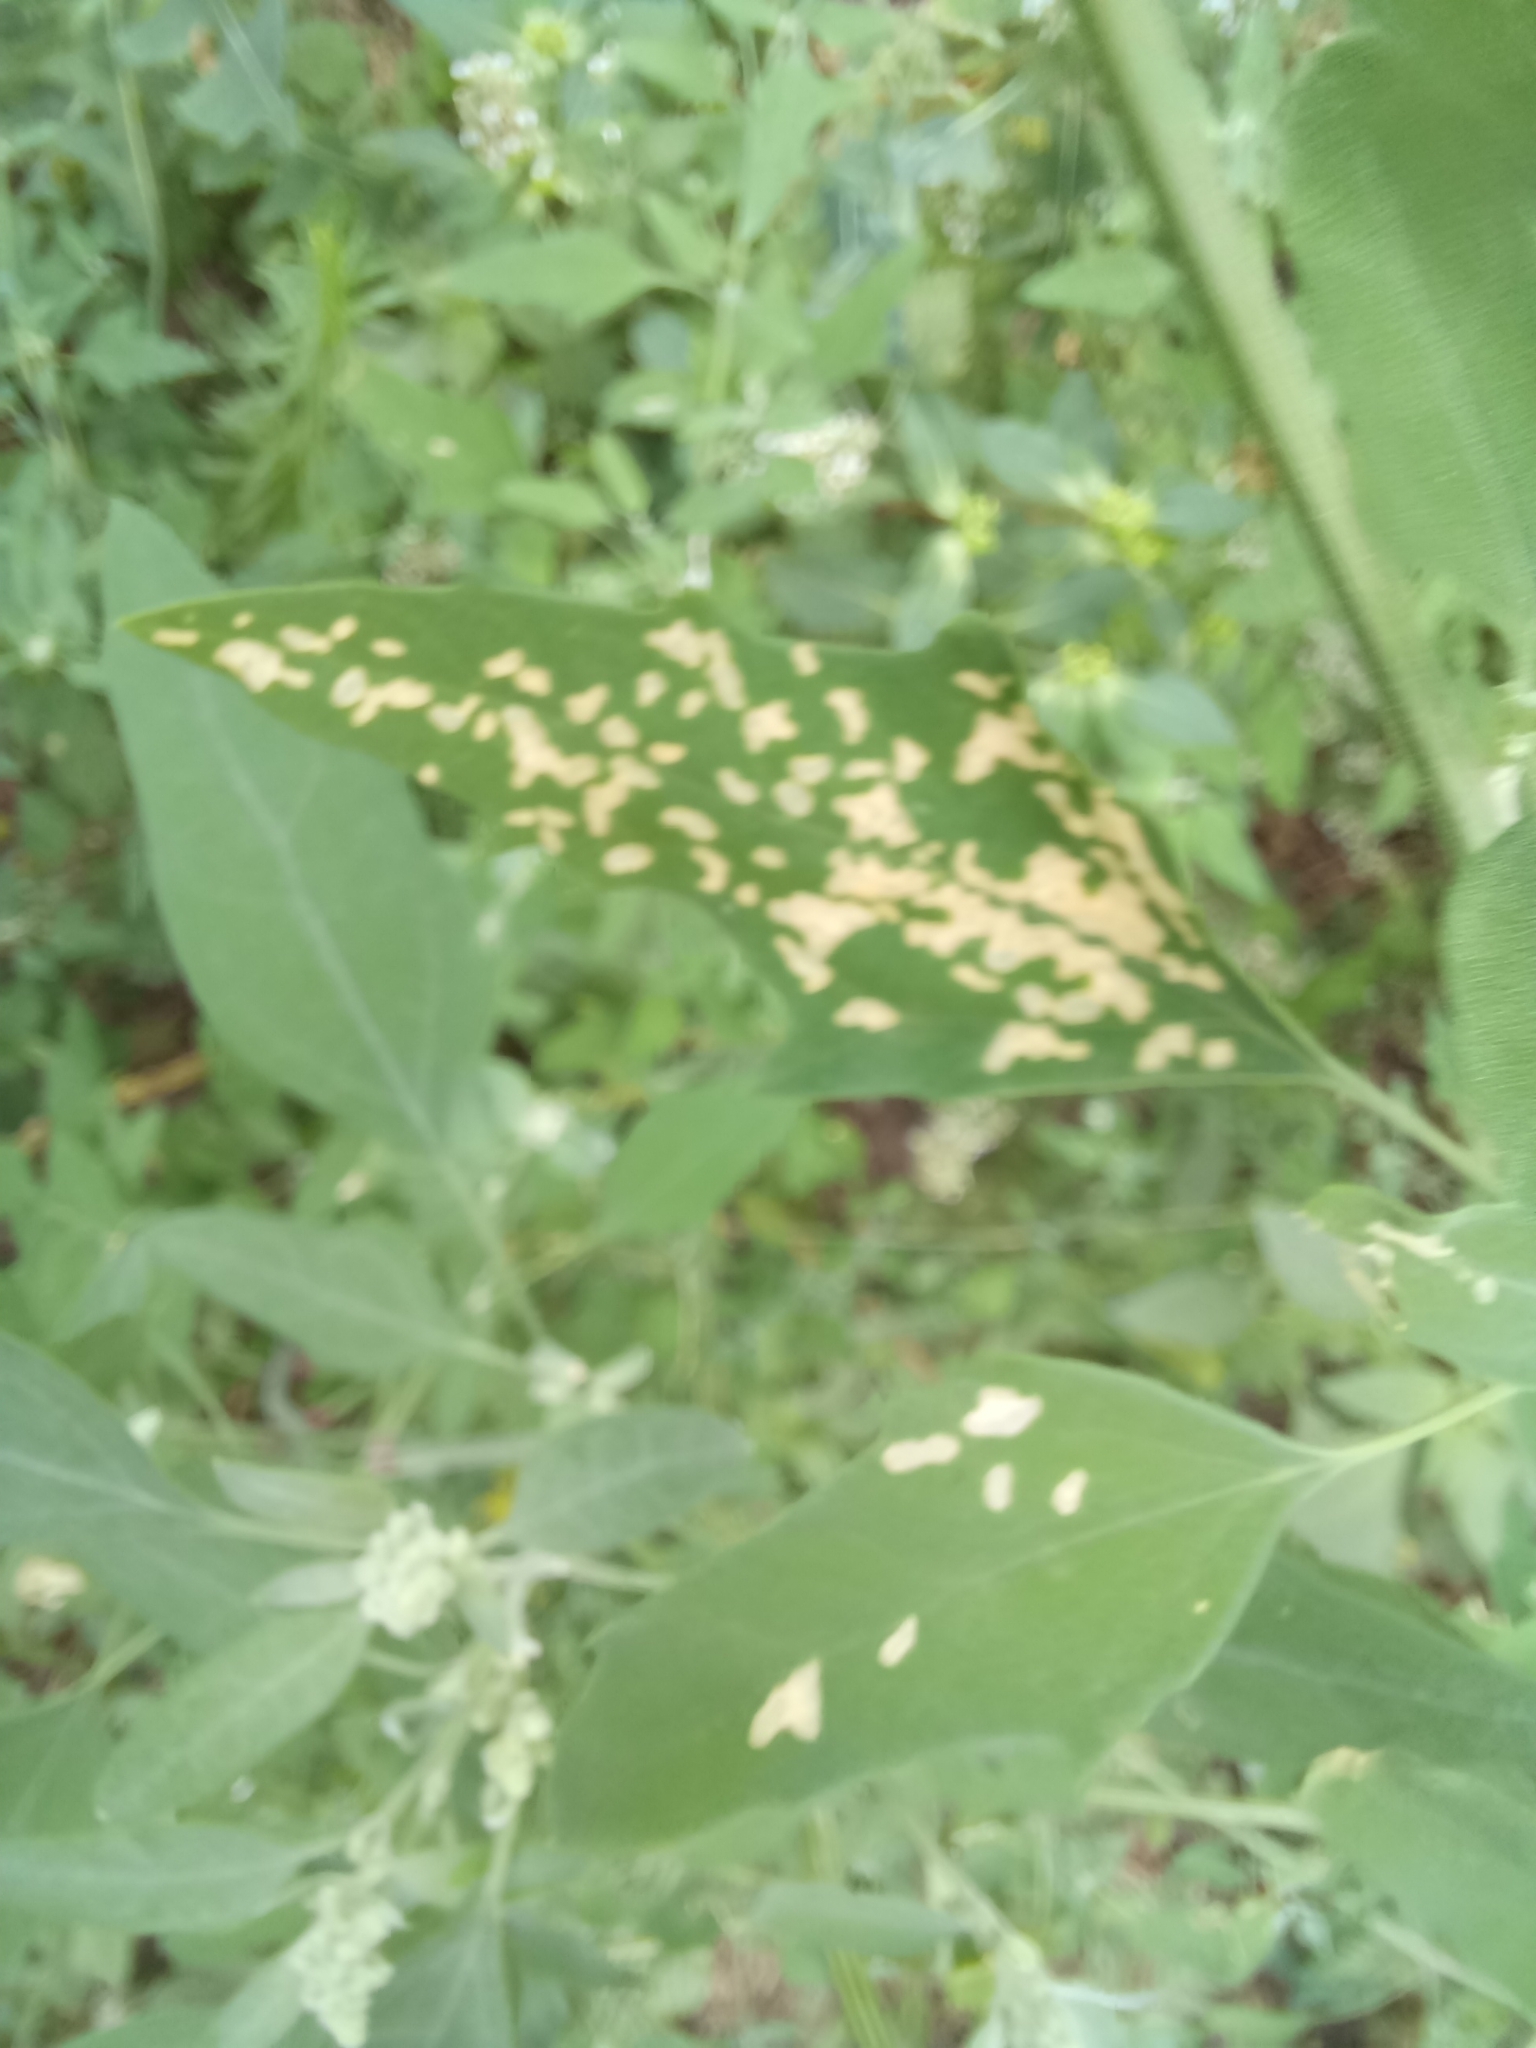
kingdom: Plantae
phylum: Tracheophyta
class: Magnoliopsida
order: Caryophyllales
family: Amaranthaceae
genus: Chenopodium
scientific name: Chenopodium album
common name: Fat-hen
